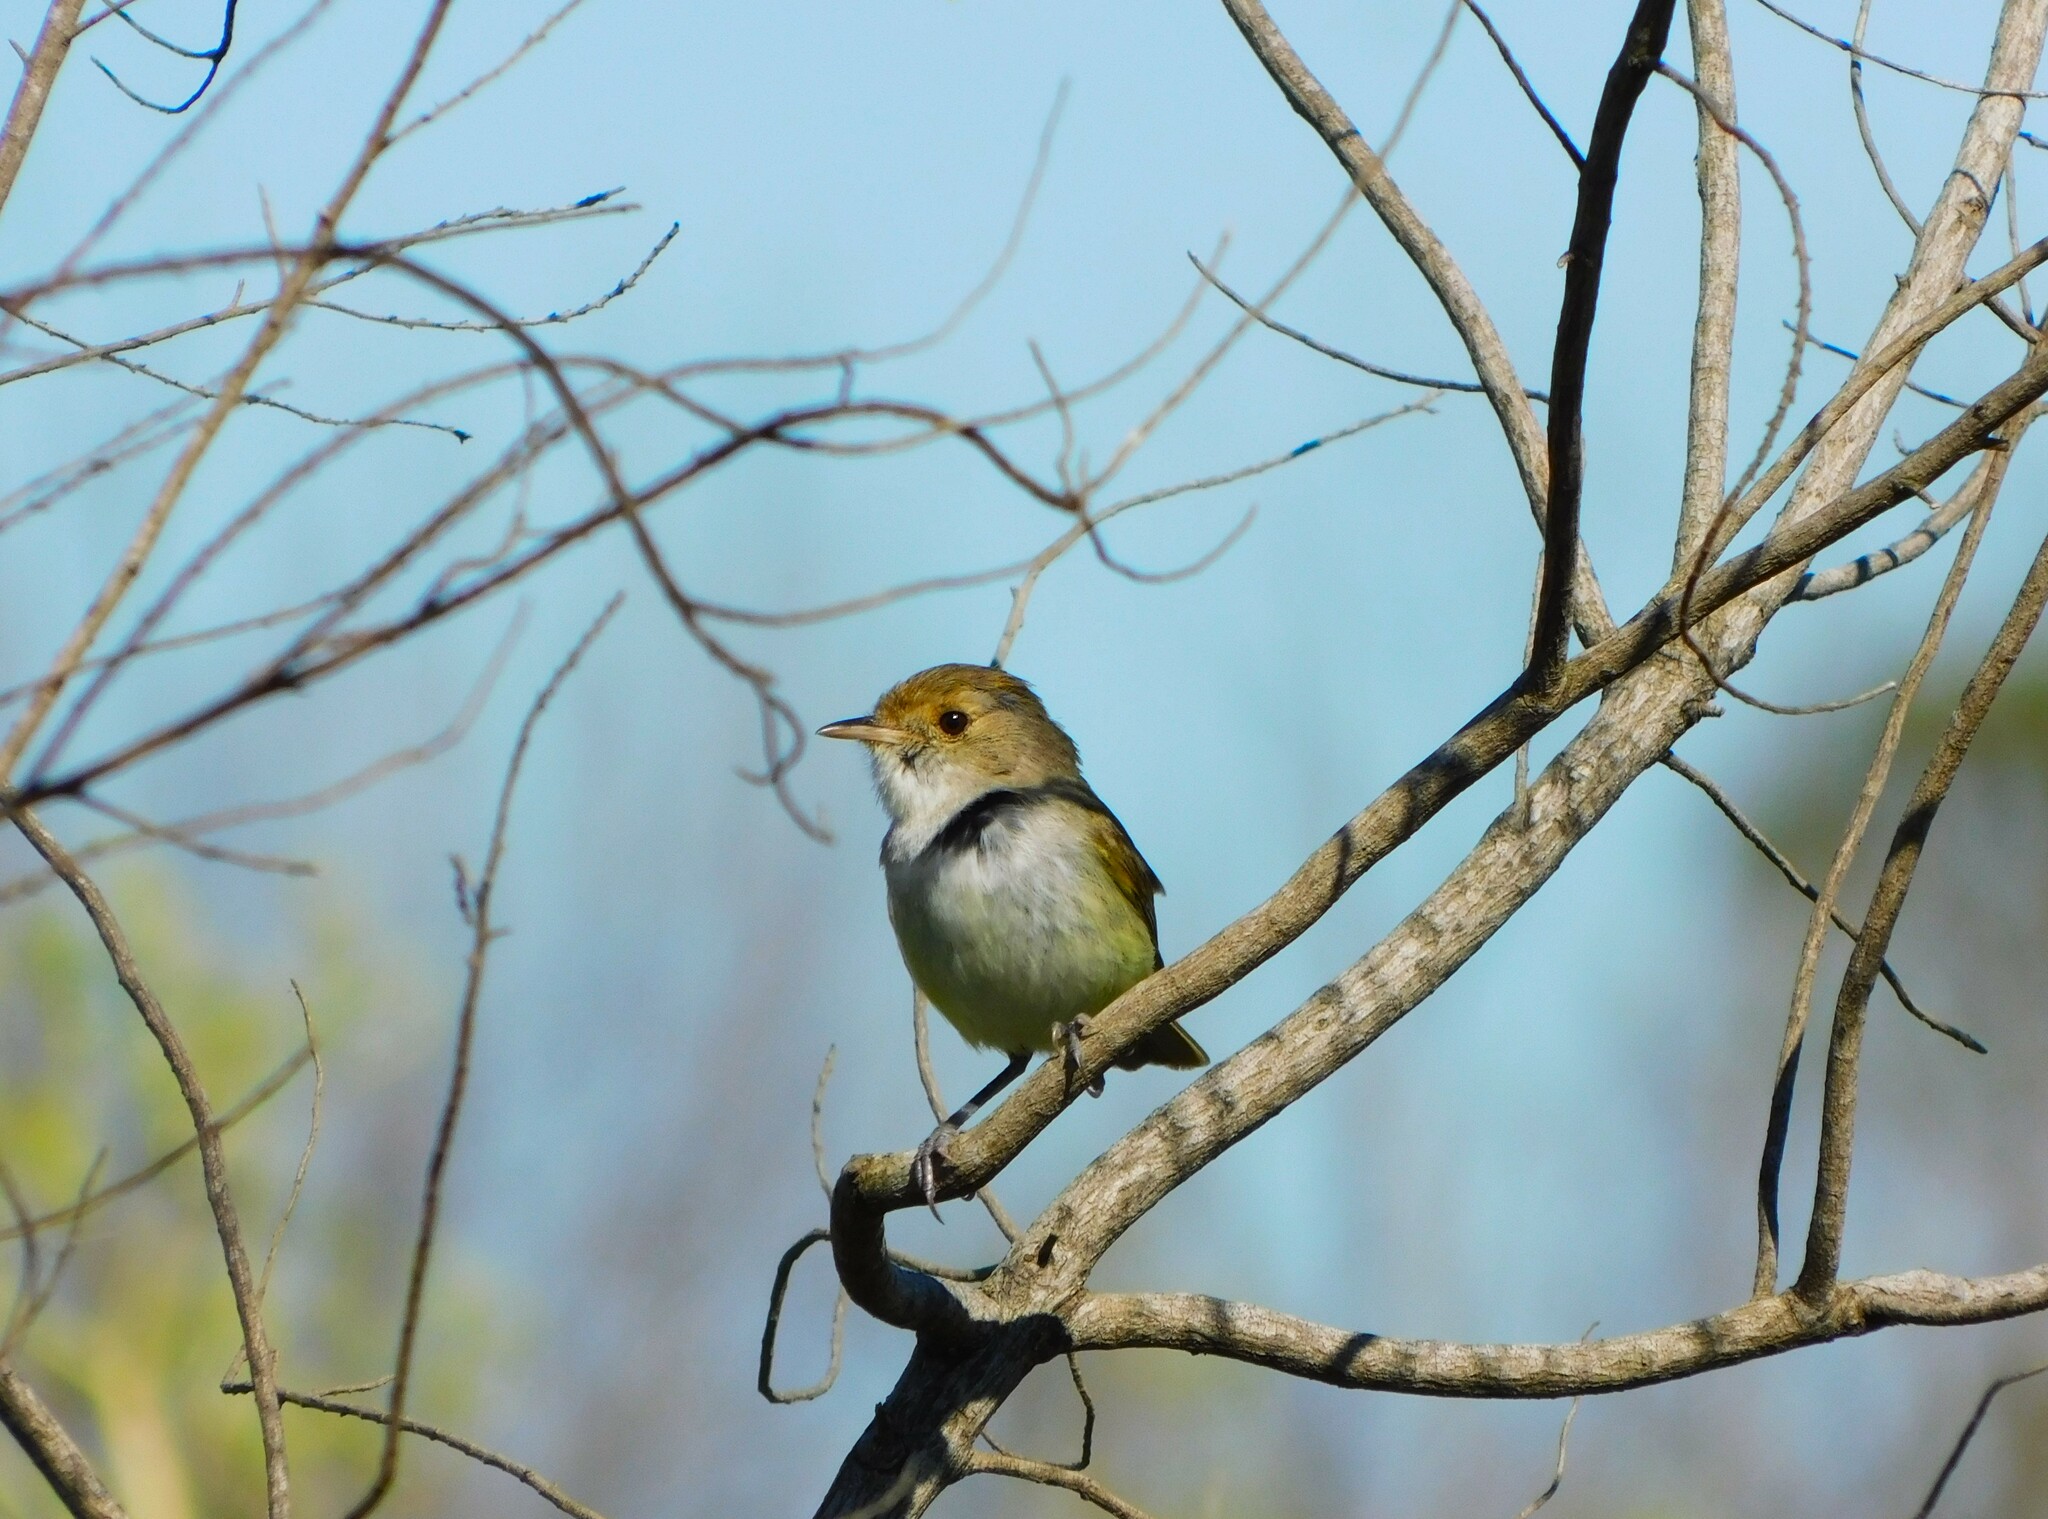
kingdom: Animalia
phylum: Chordata
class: Aves
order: Passeriformes
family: Tyrannidae
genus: Euscarthmus
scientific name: Euscarthmus meloryphus
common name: Tawny-crowned pygmy tyrant
